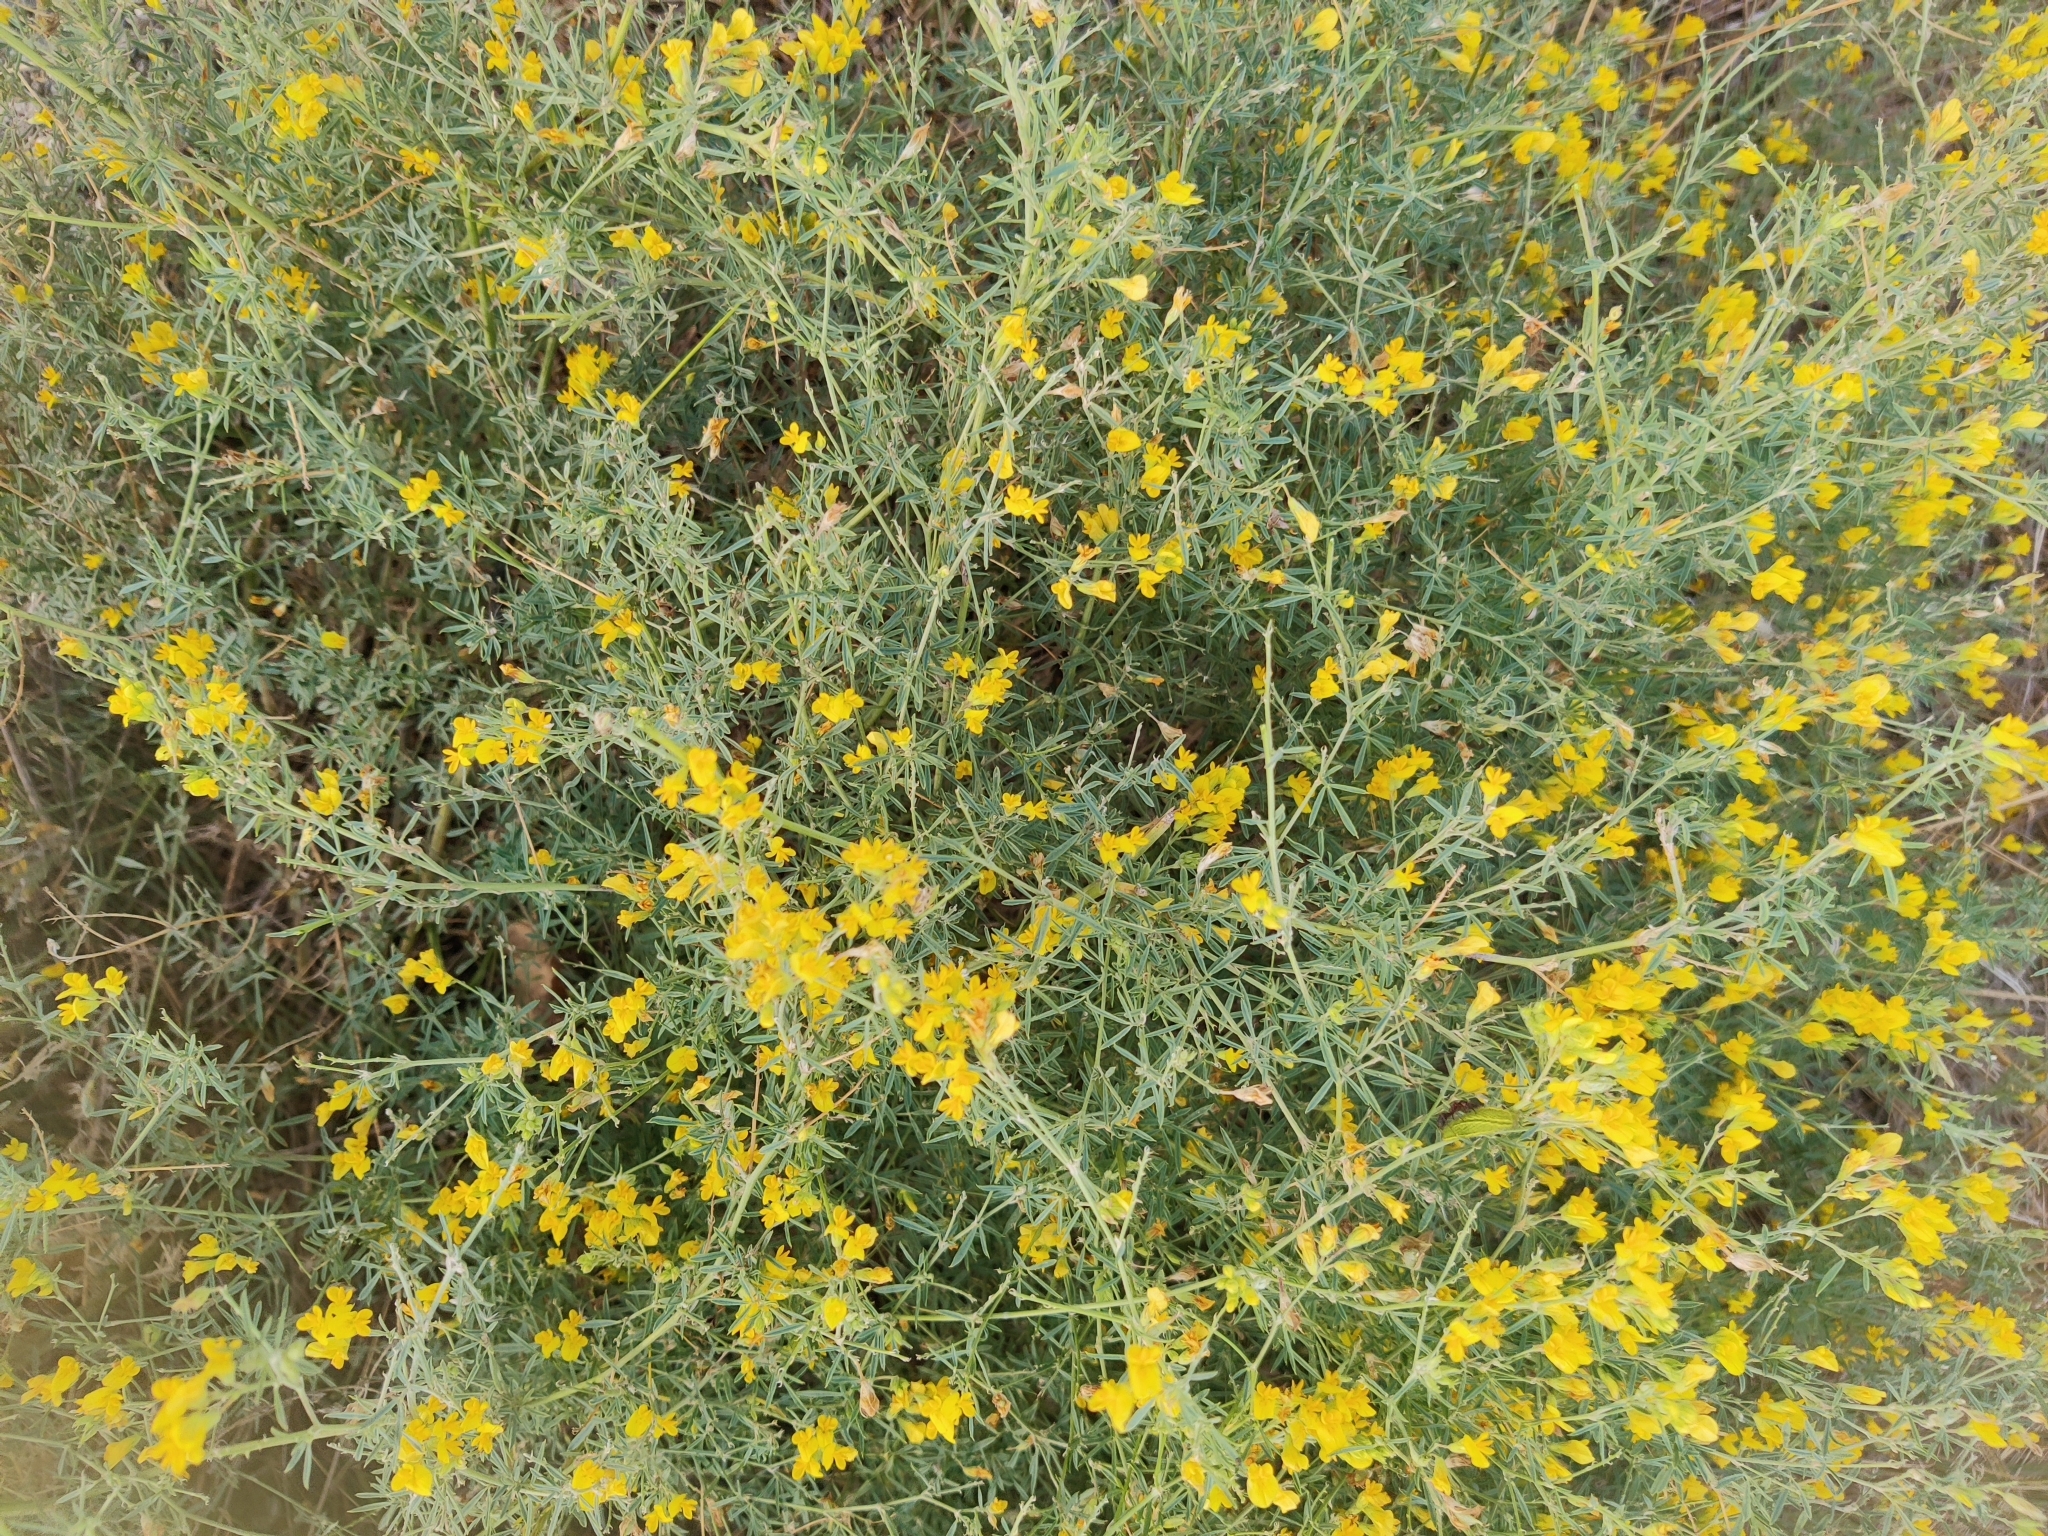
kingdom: Plantae
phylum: Tracheophyta
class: Magnoliopsida
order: Fabales
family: Fabaceae
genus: Medicago
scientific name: Medicago falcata
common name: Sickle medick
